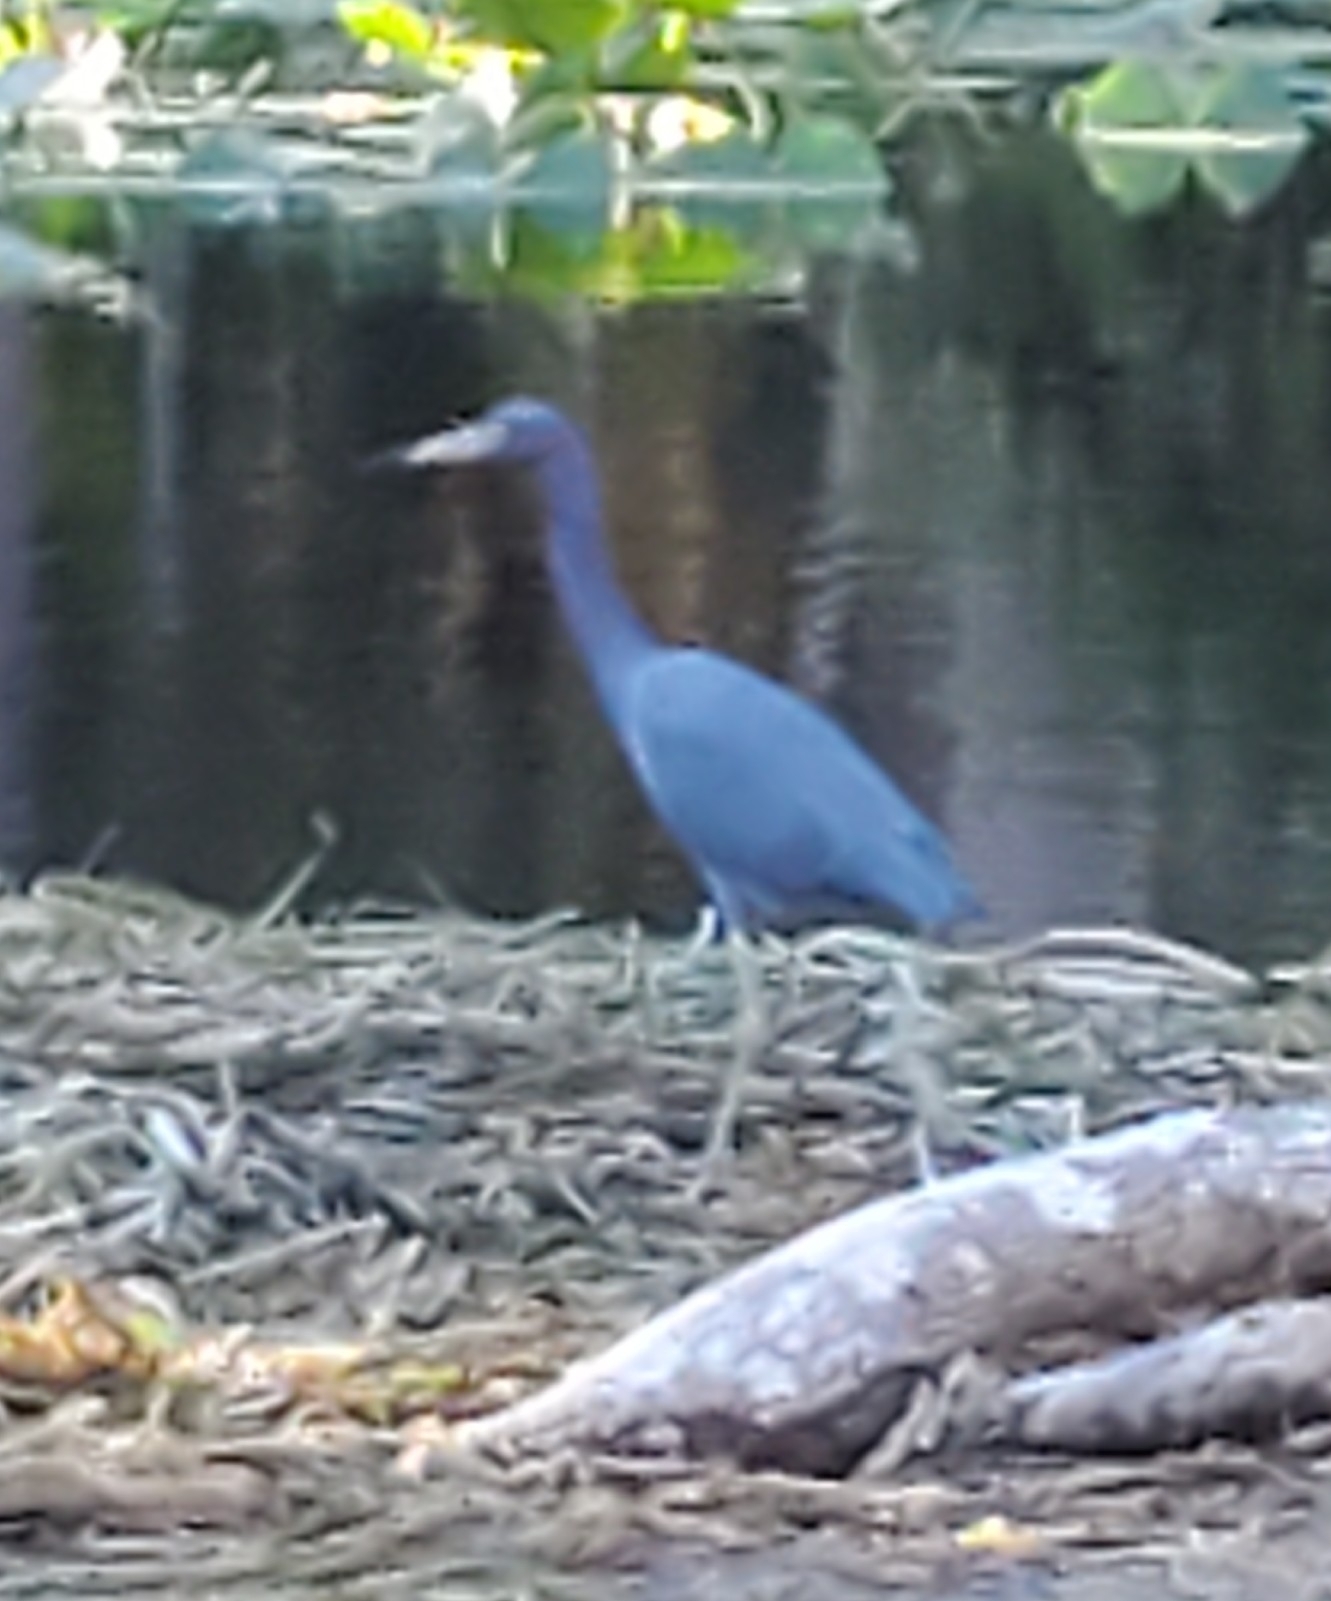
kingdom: Animalia
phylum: Chordata
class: Aves
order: Pelecaniformes
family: Ardeidae
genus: Egretta
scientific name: Egretta caerulea
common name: Little blue heron
